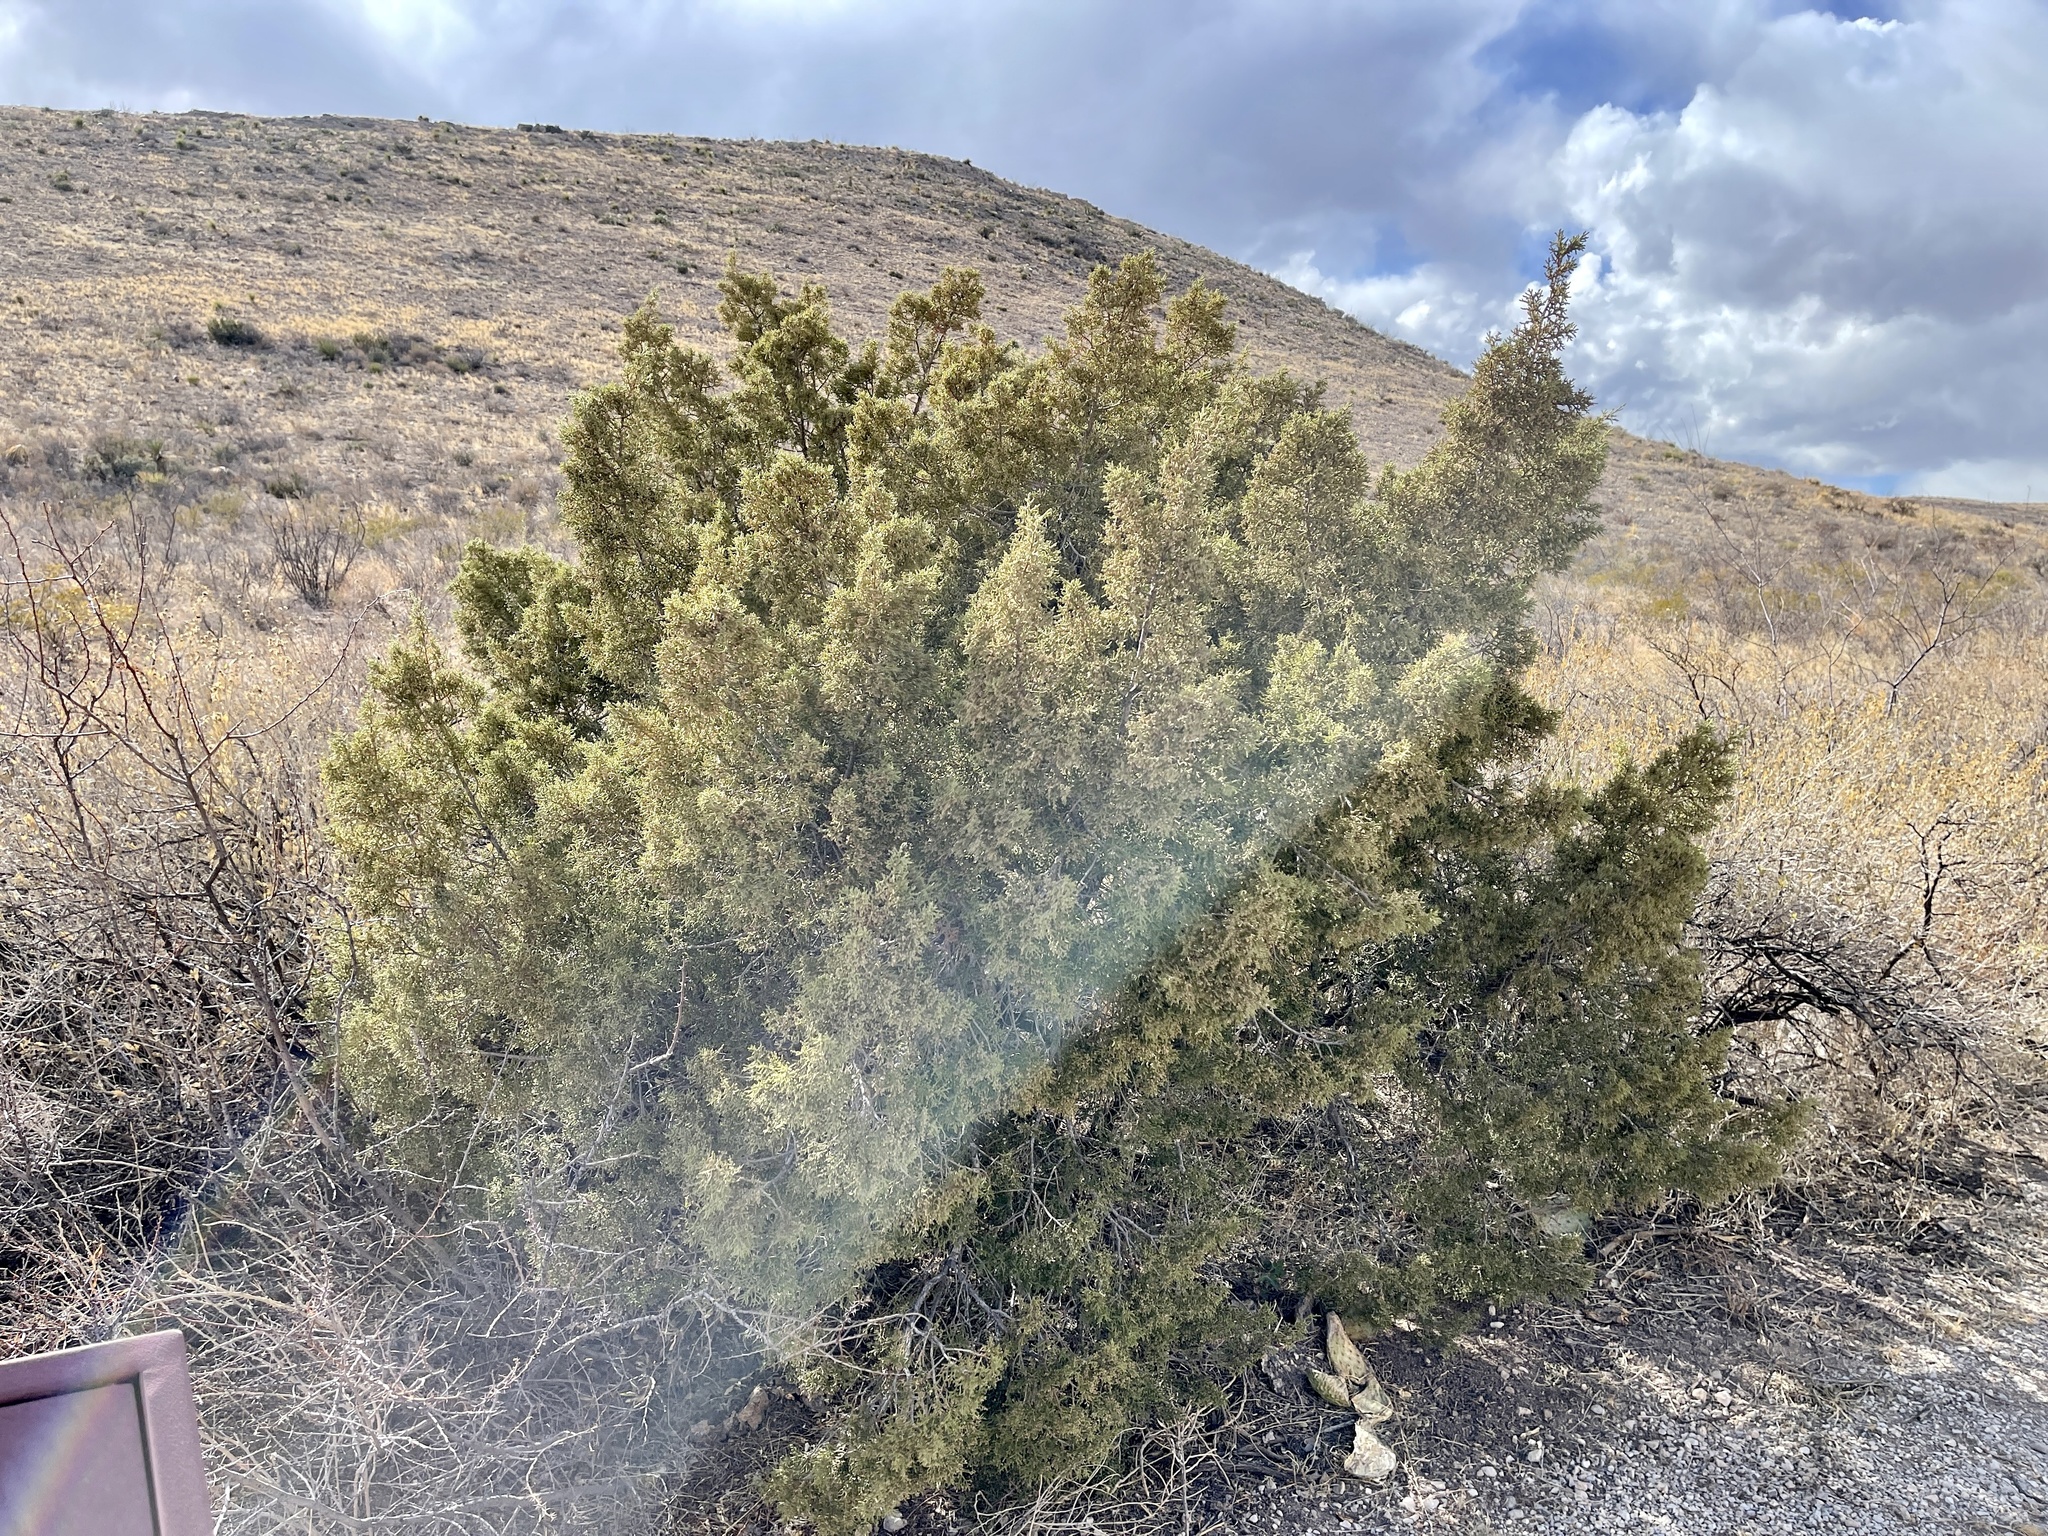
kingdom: Plantae
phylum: Tracheophyta
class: Pinopsida
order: Pinales
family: Cupressaceae
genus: Juniperus
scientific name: Juniperus pinchotii
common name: Pinchot juniper
